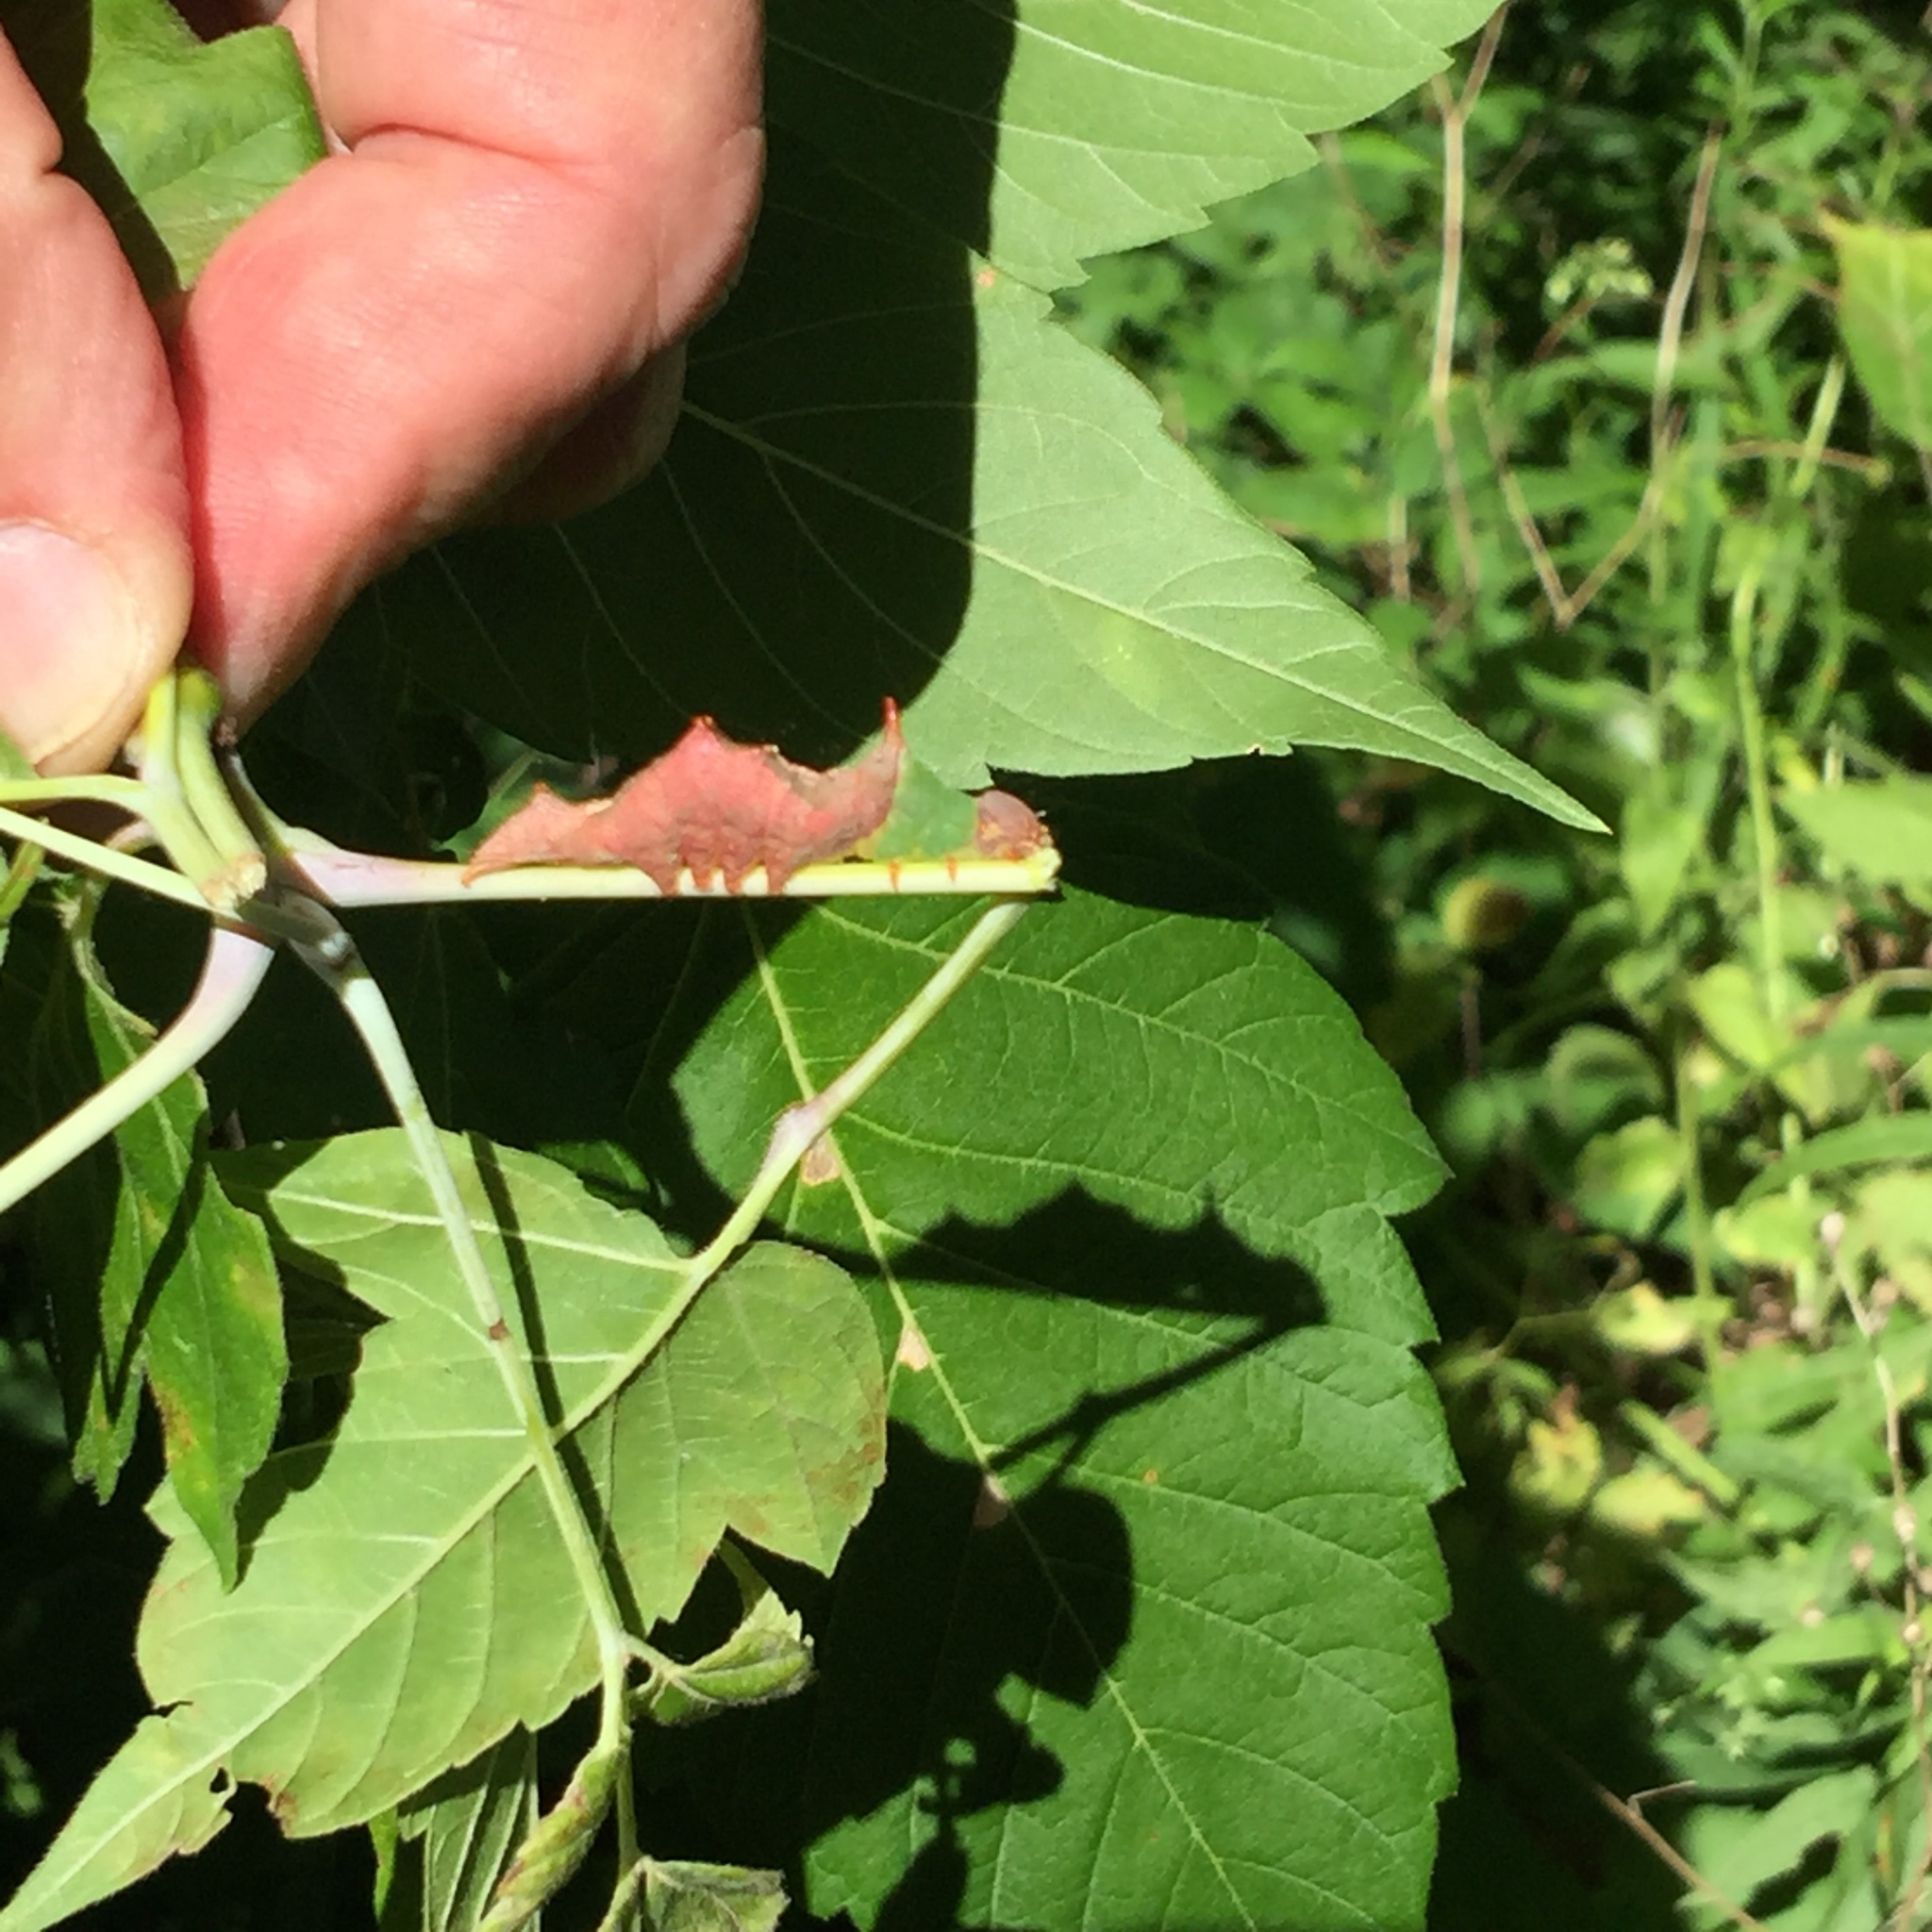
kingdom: Animalia
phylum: Arthropoda
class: Insecta
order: Lepidoptera
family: Notodontidae
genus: Schizura
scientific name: Schizura ipomaeae
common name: Morning-glory prominent
